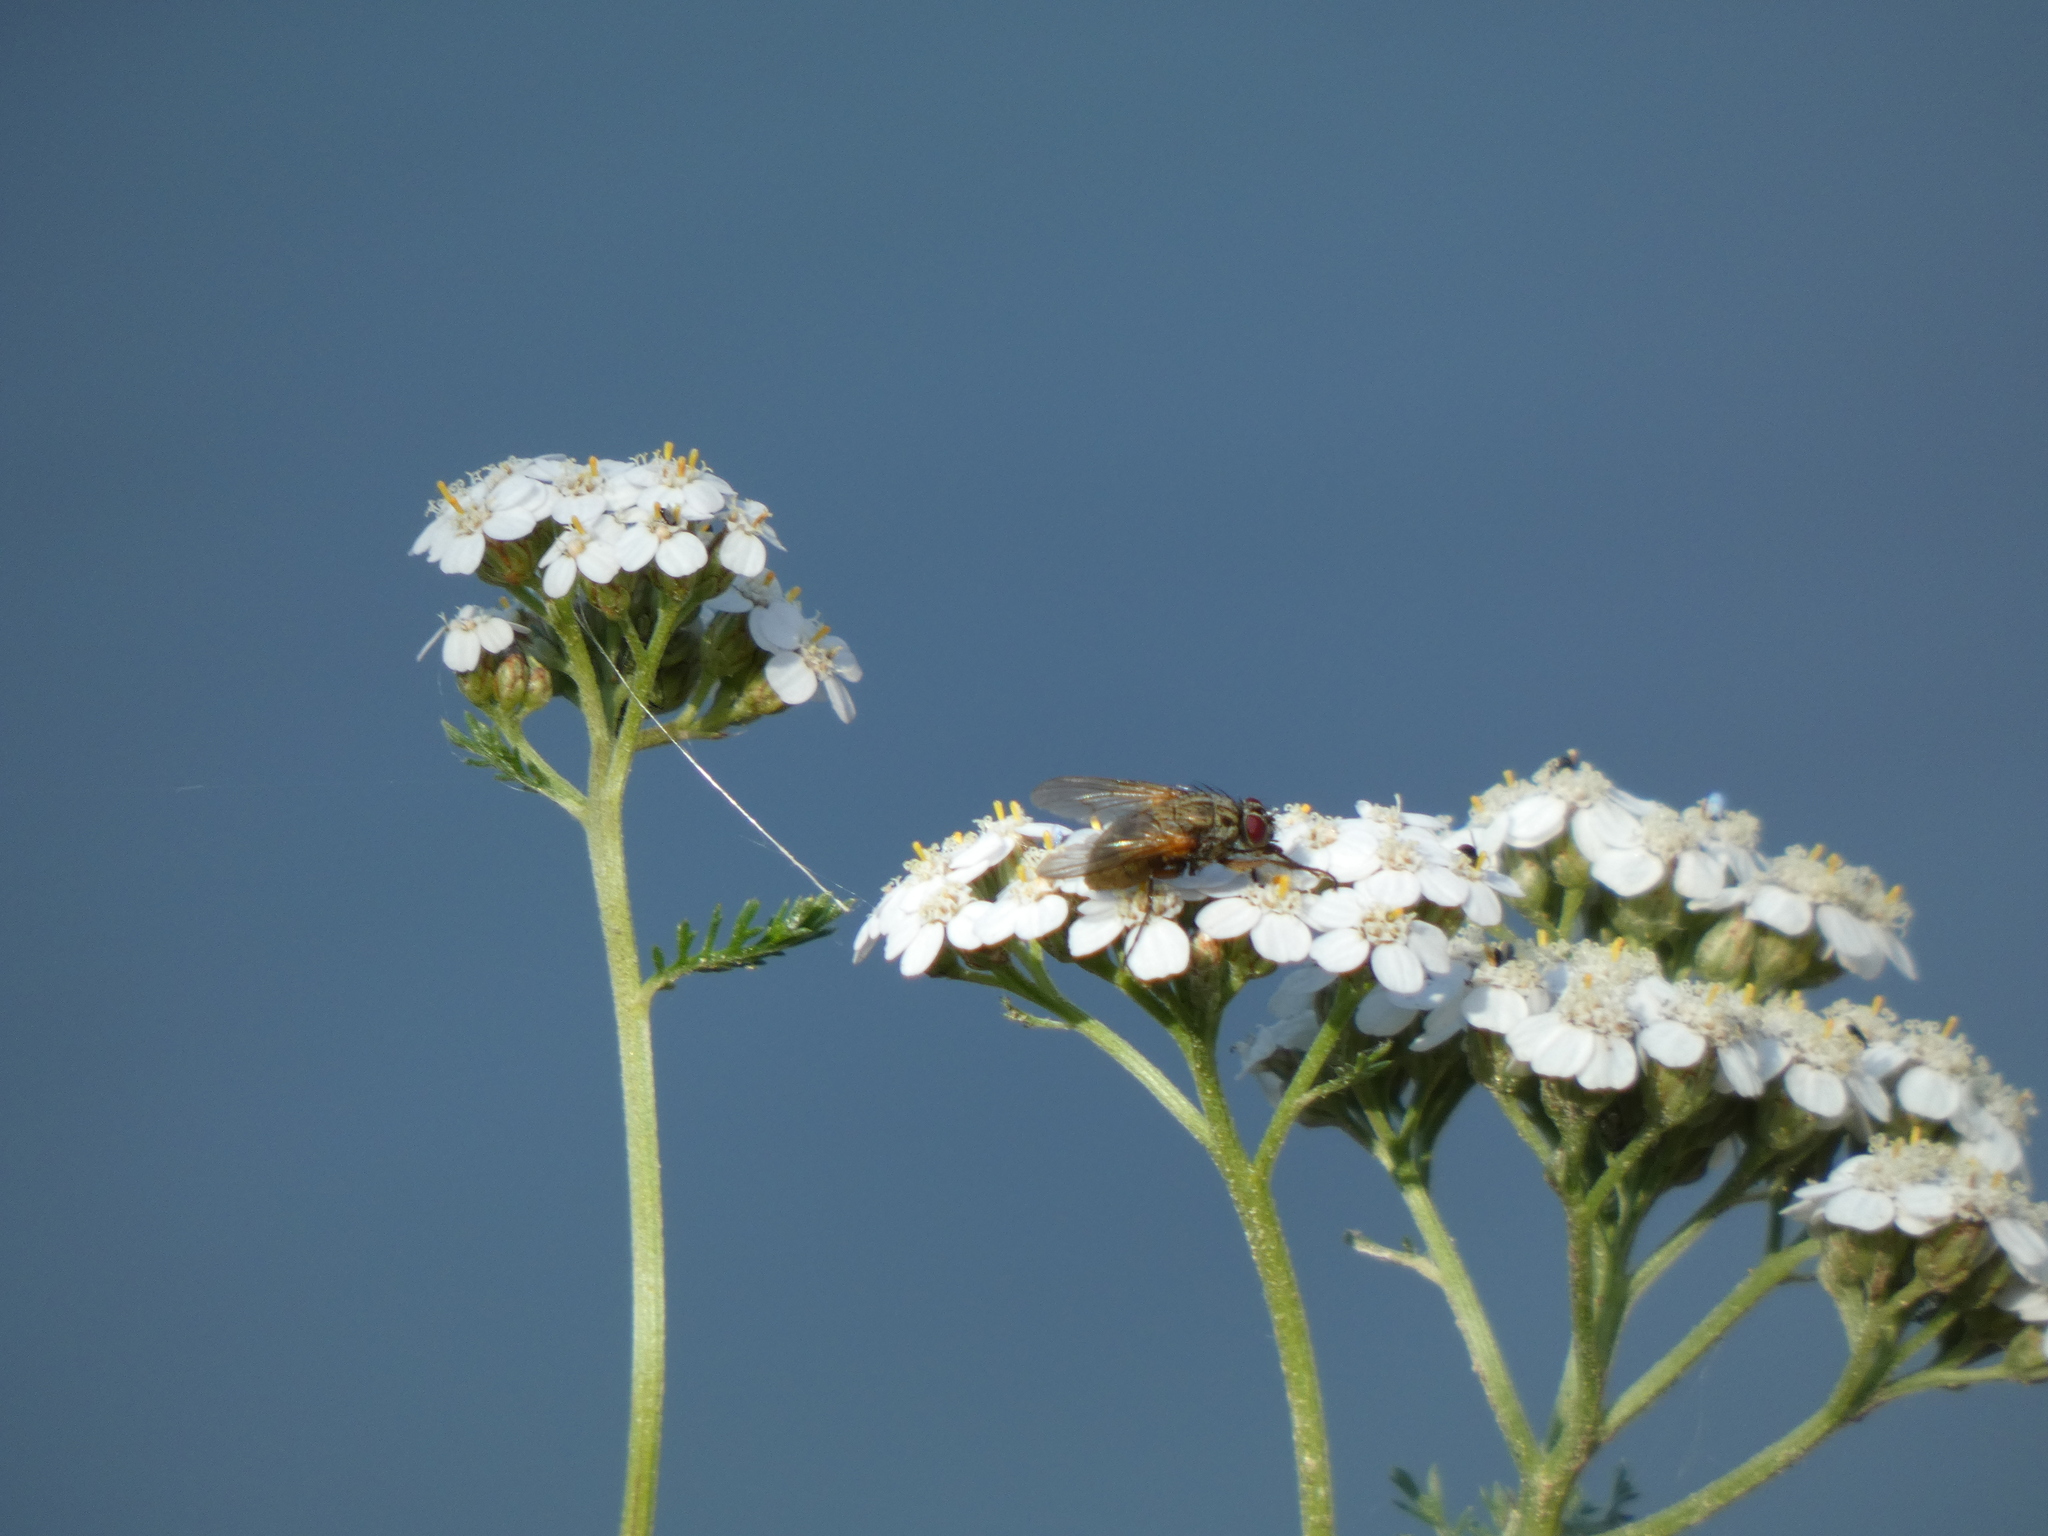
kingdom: Plantae
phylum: Tracheophyta
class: Magnoliopsida
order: Asterales
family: Asteraceae
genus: Achillea
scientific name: Achillea millefolium
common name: Yarrow
